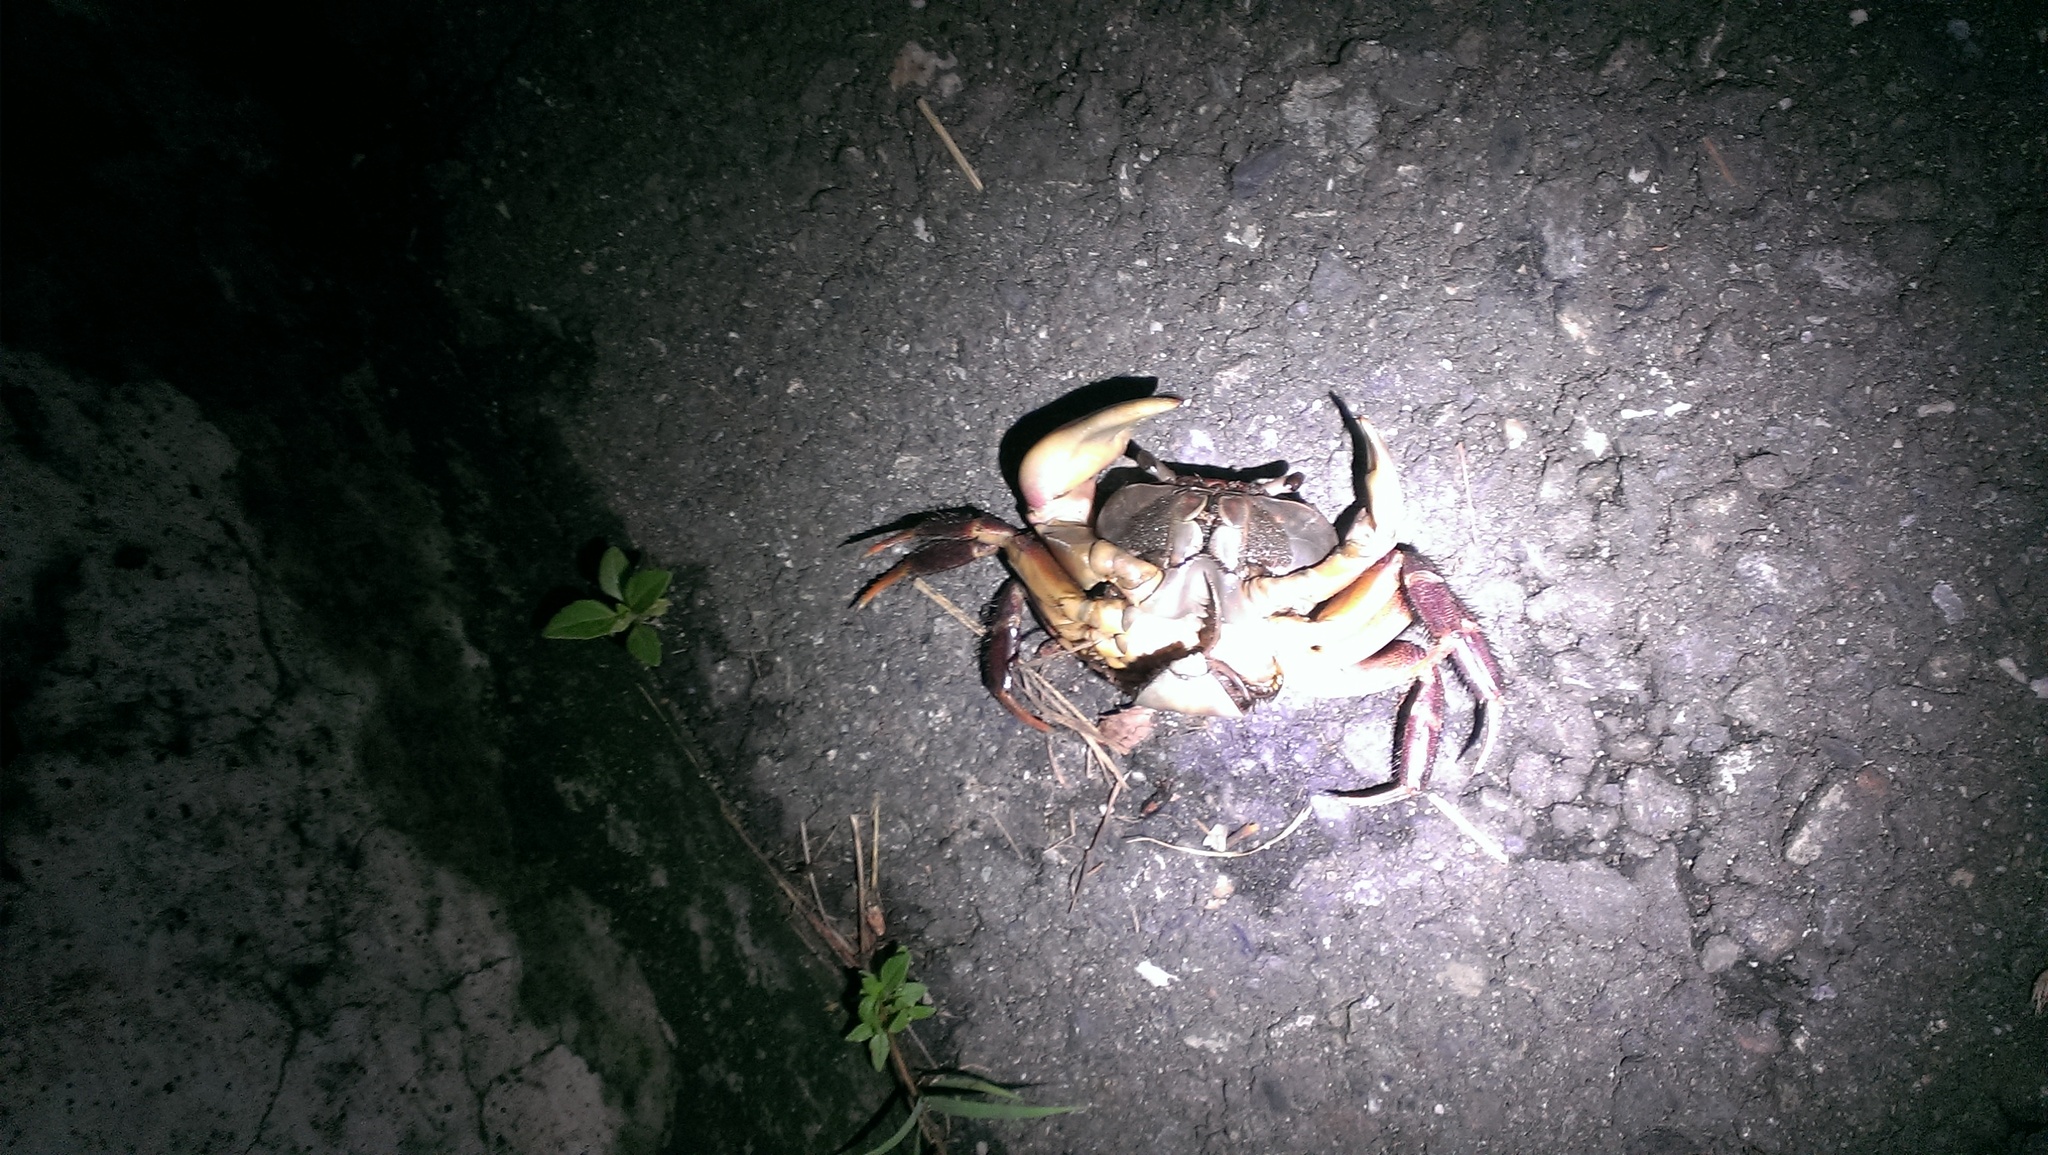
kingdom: Animalia
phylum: Arthropoda
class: Malacostraca
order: Decapoda
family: Gecarcinidae
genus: Cardisoma
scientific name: Cardisoma carnifex
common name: Brown land crab
